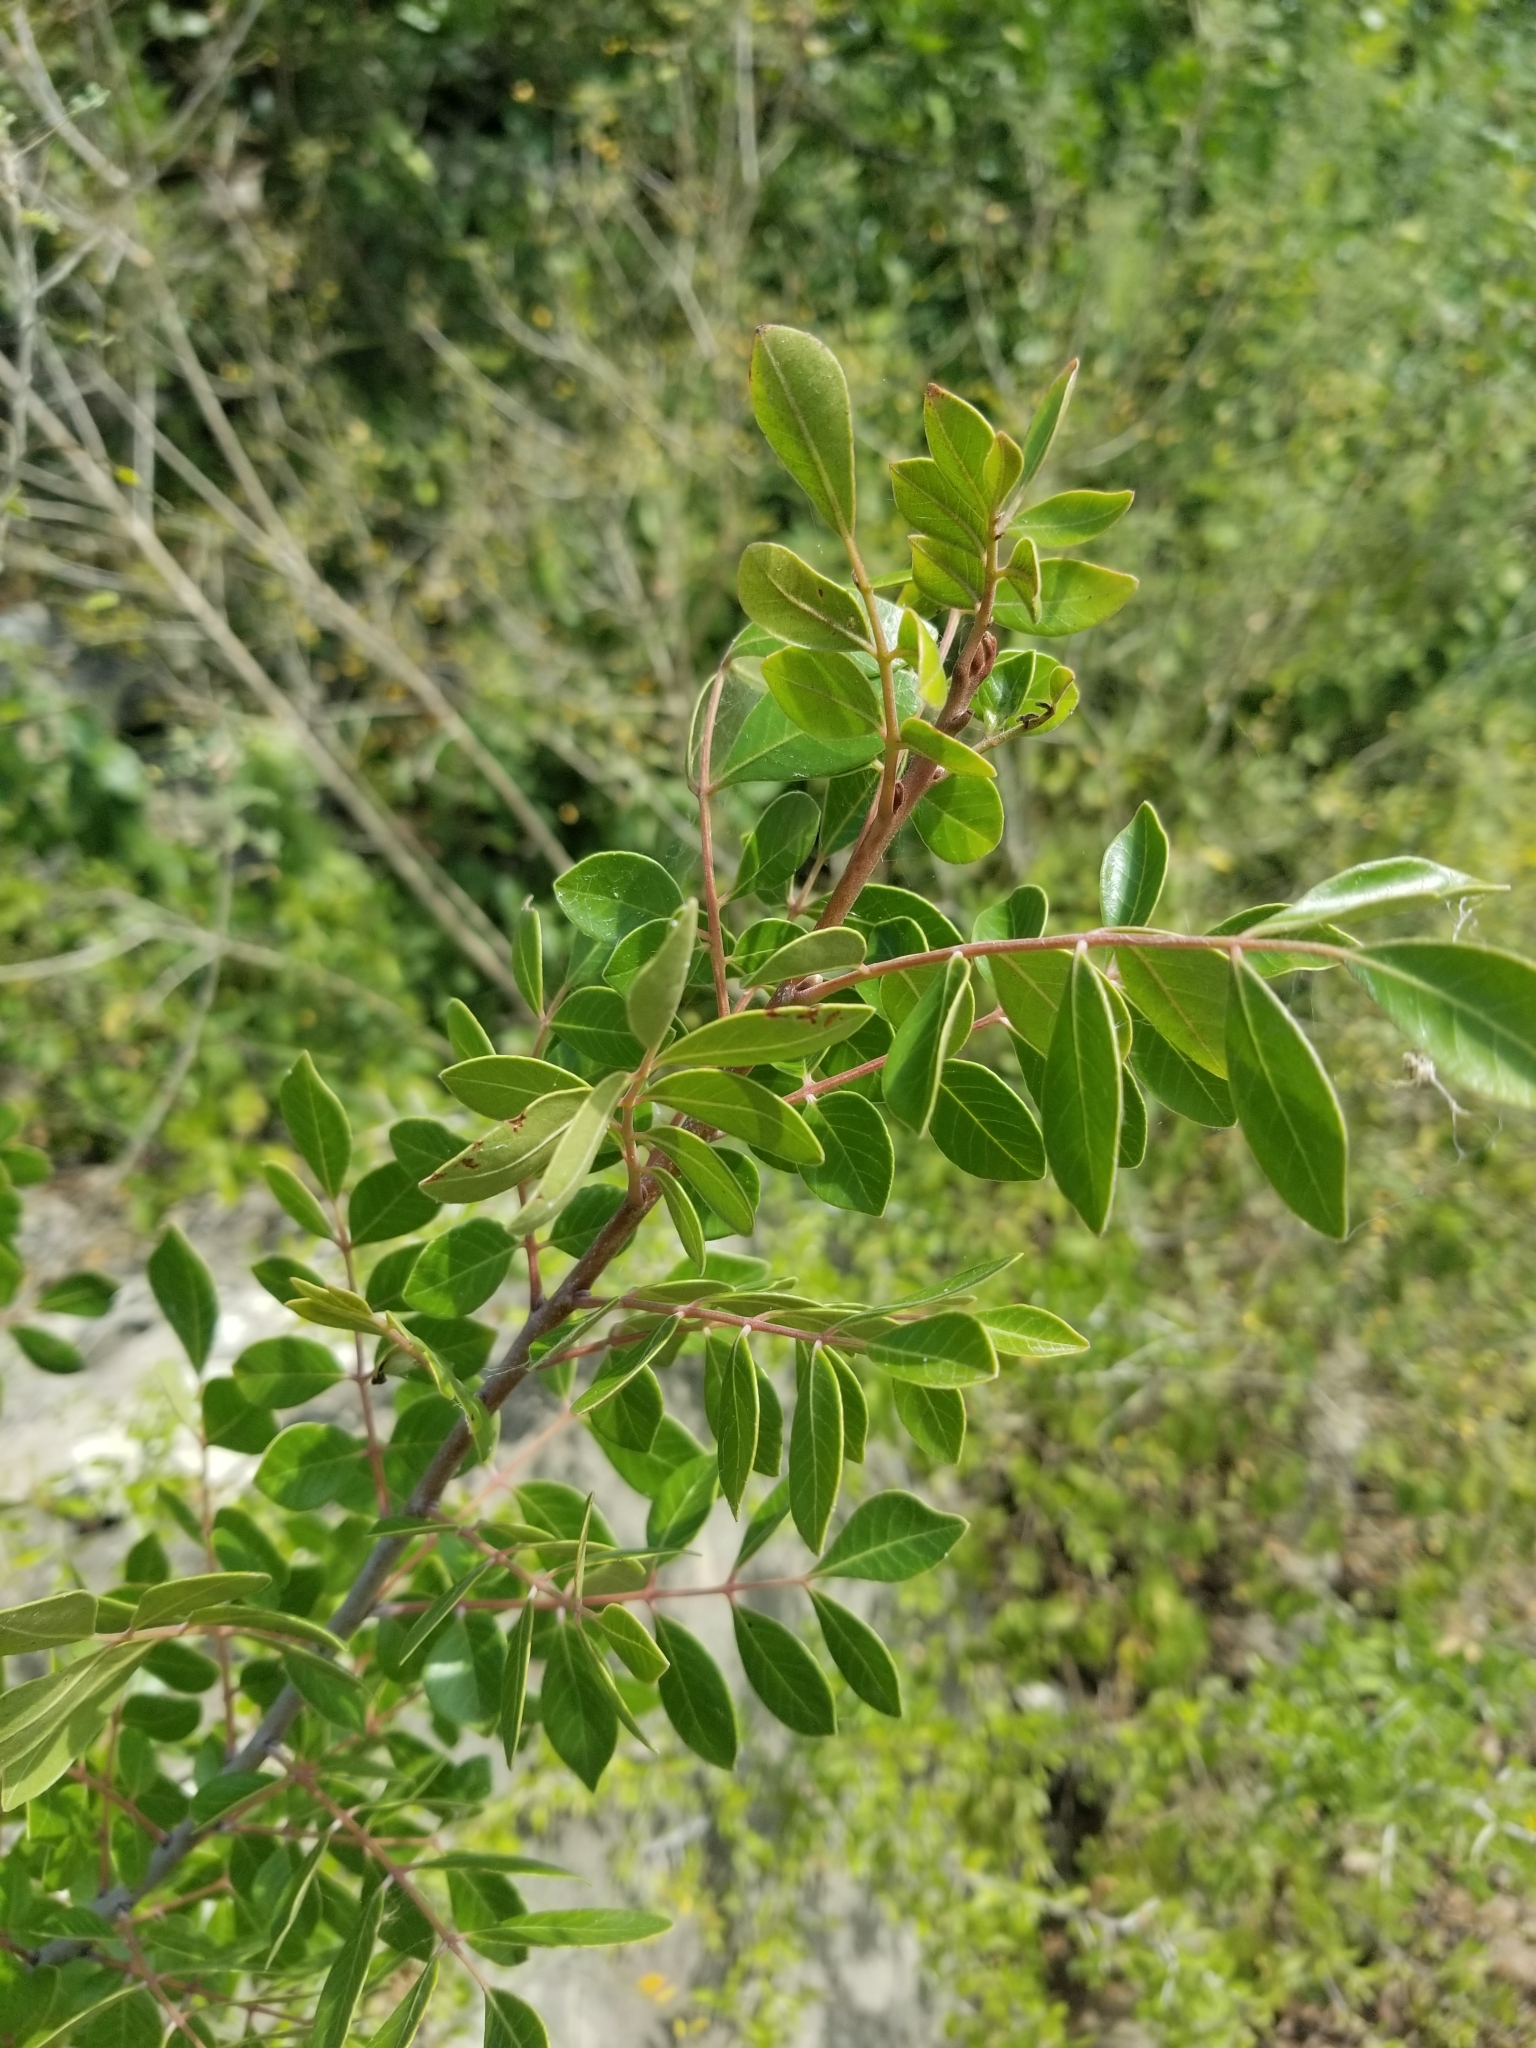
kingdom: Plantae
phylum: Tracheophyta
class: Magnoliopsida
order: Sapindales
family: Anacardiaceae
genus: Rhus
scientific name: Rhus virens
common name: Evergreen sumac
